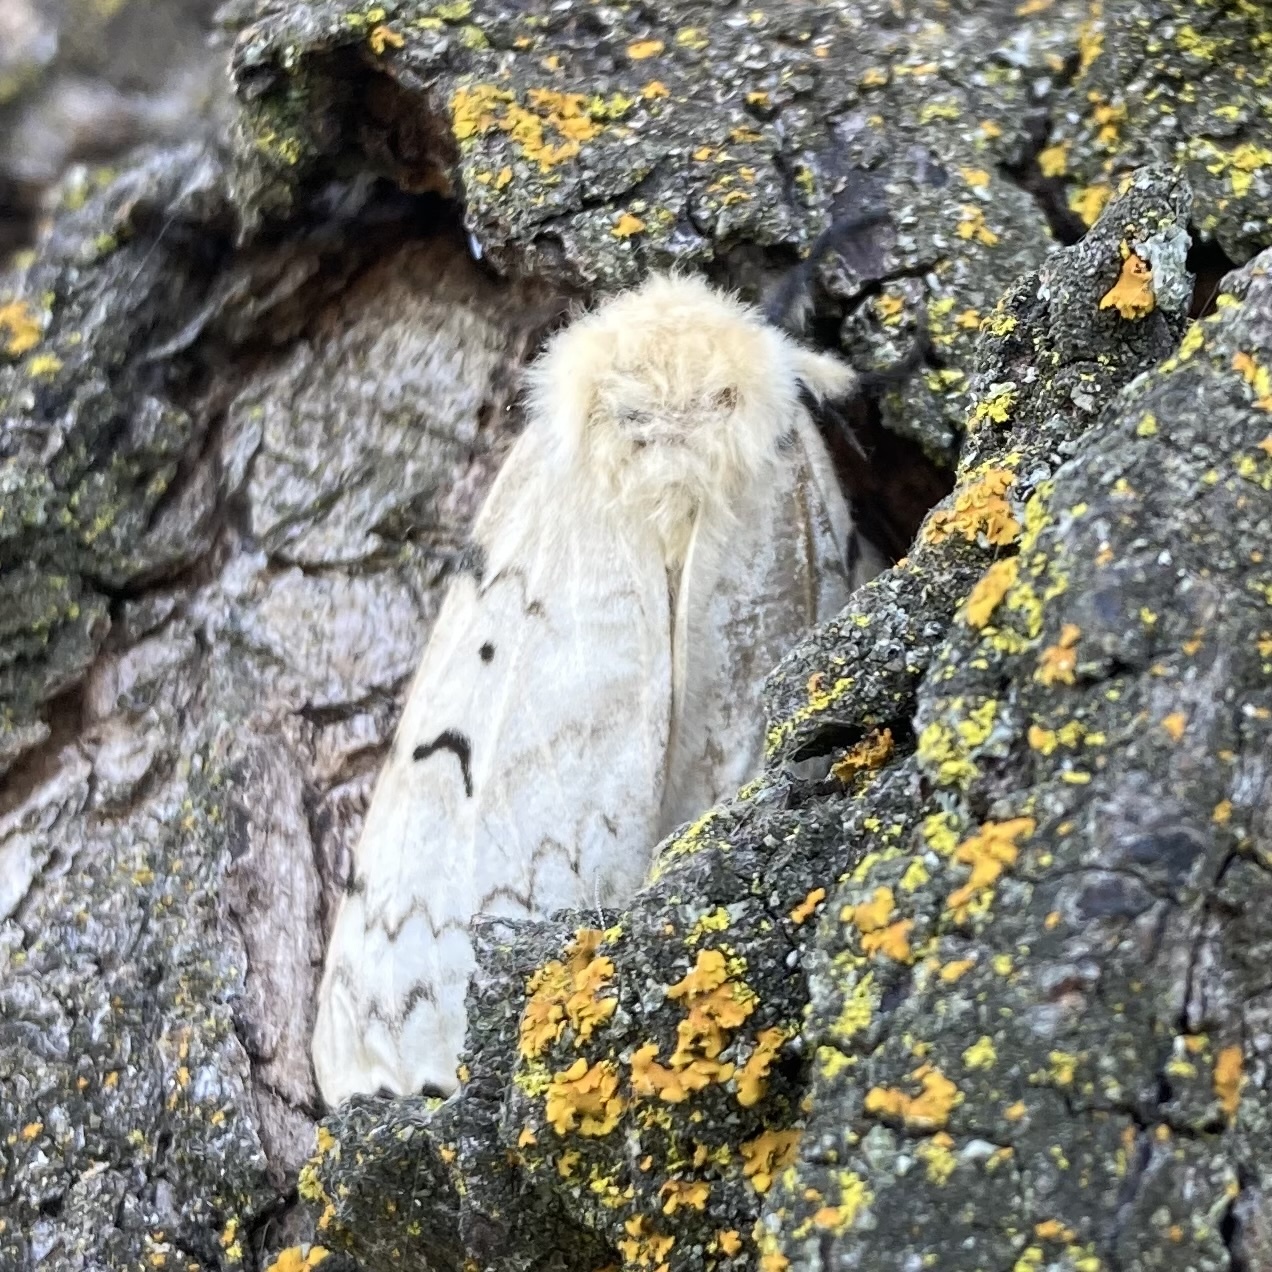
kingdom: Animalia
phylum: Arthropoda
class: Insecta
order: Lepidoptera
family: Erebidae
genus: Lymantria
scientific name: Lymantria dispar
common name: Gypsy moth
